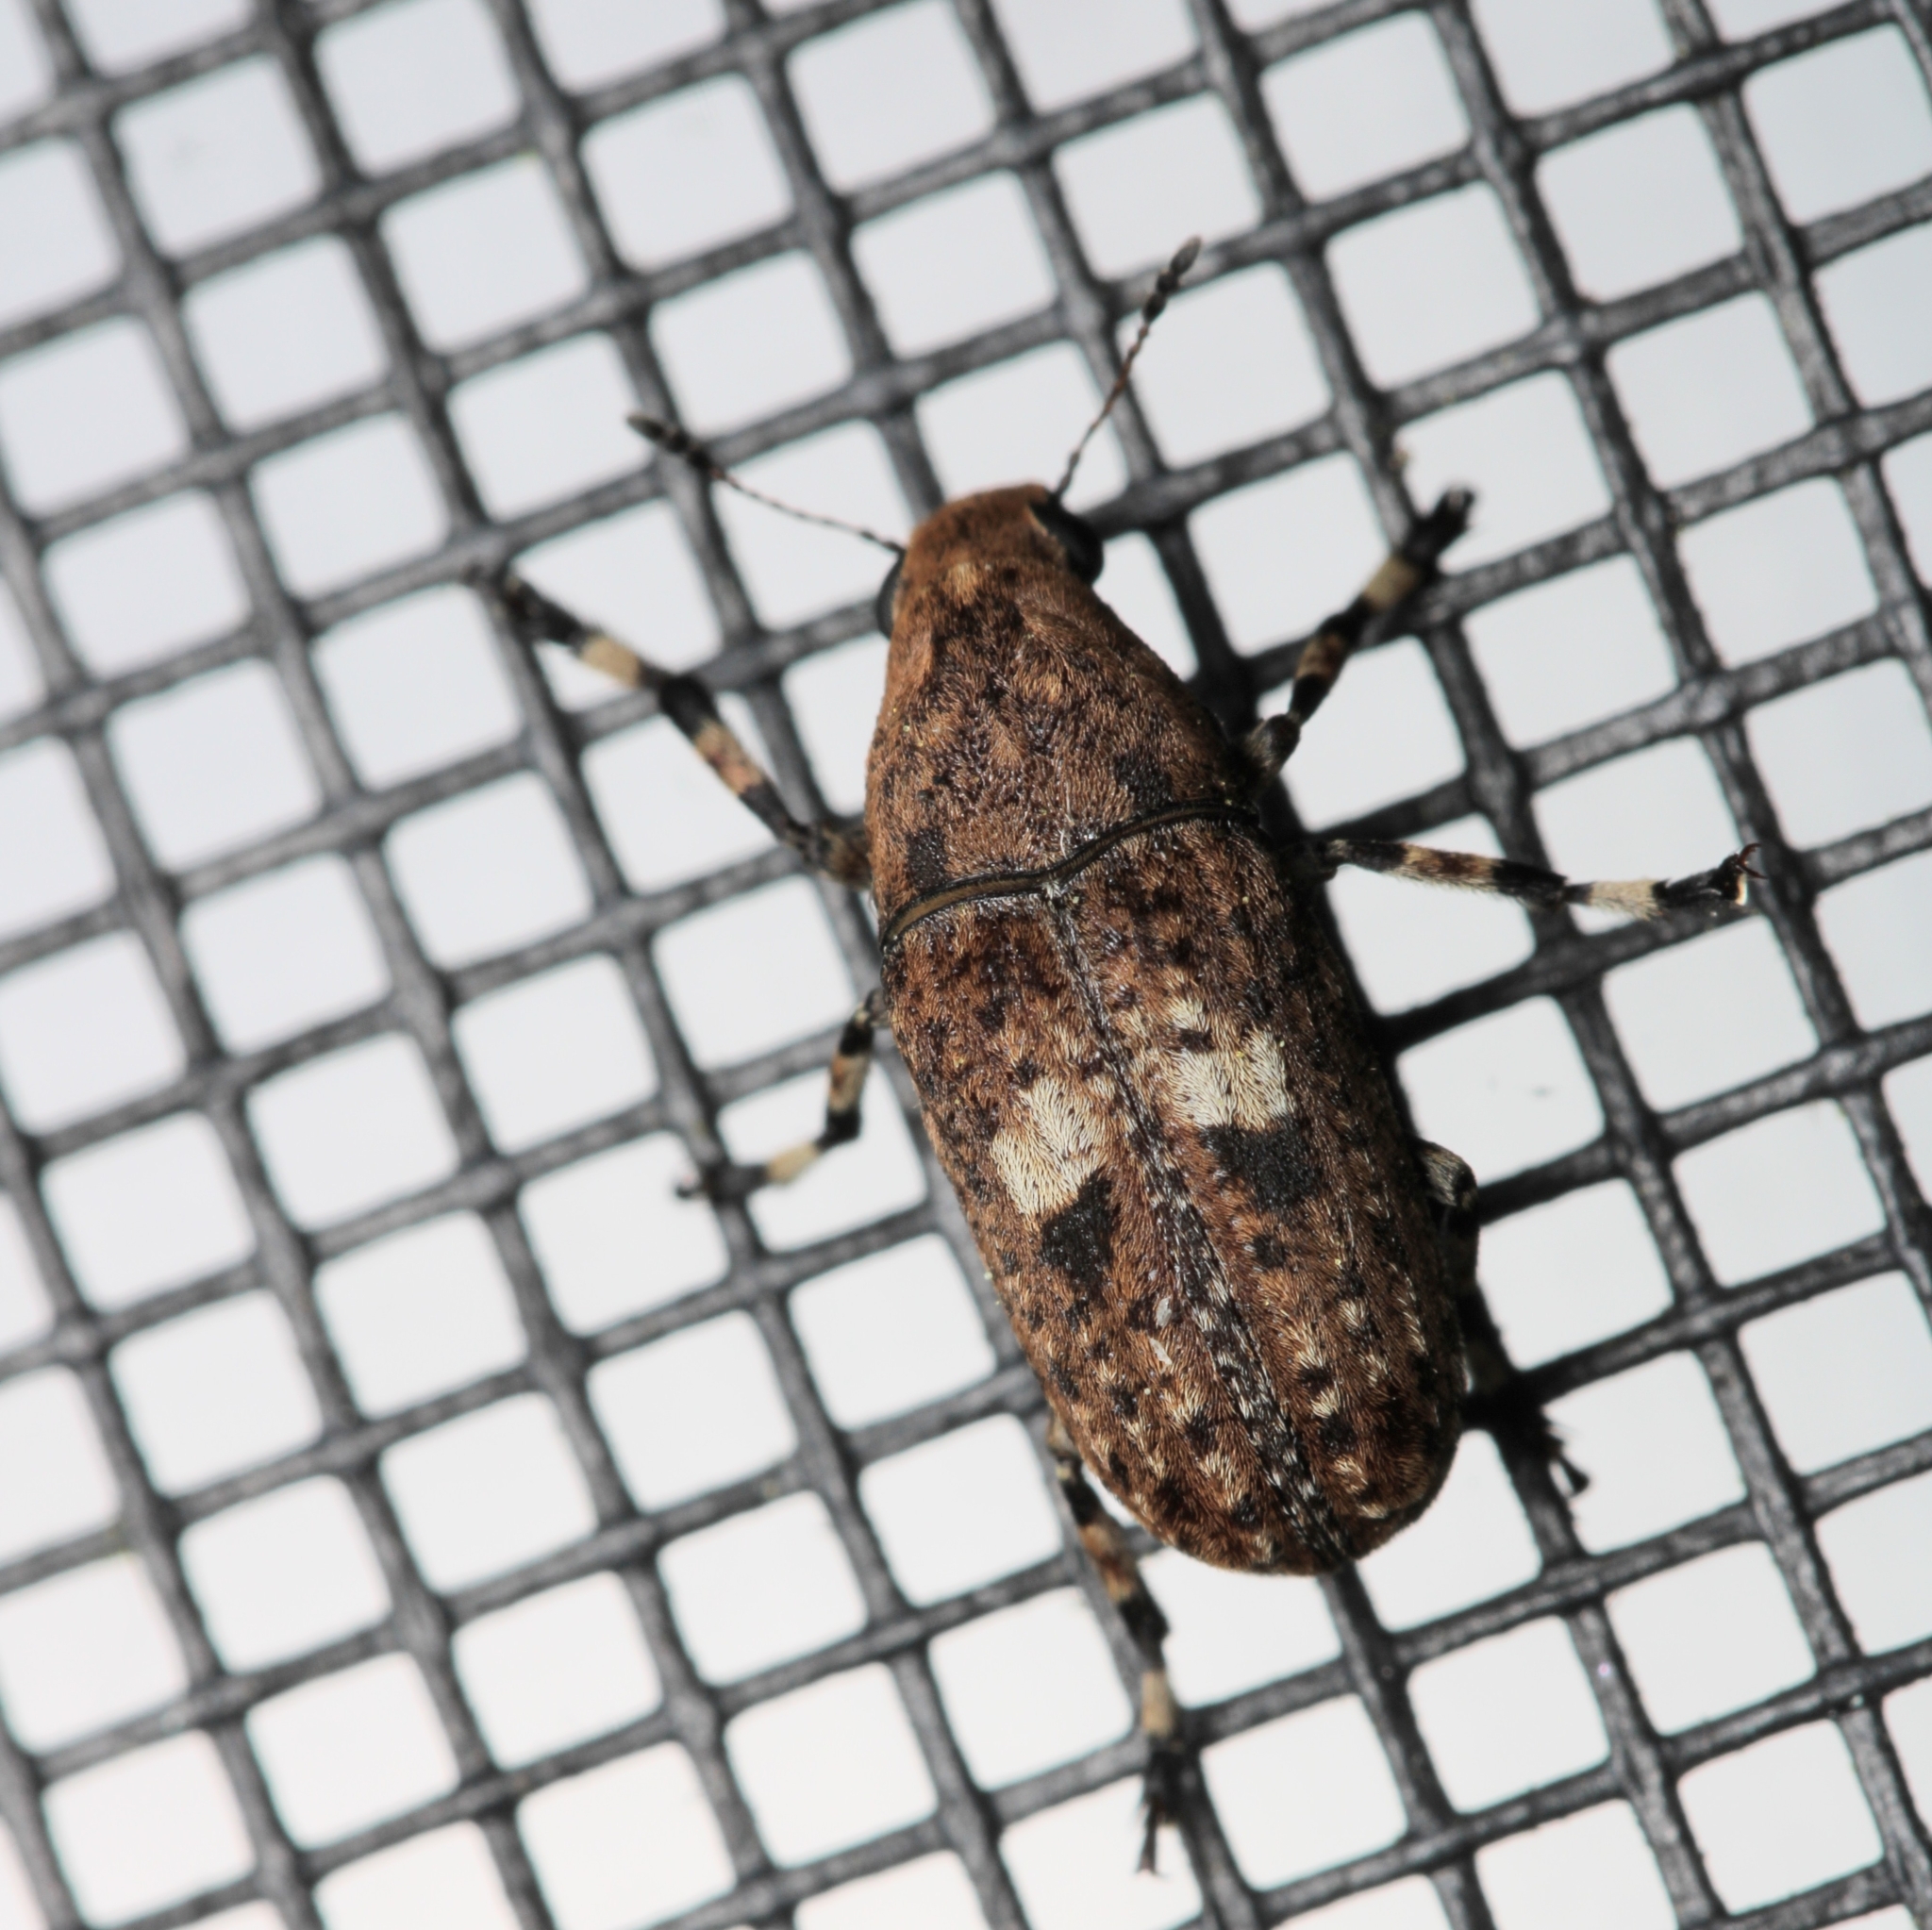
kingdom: Animalia
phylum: Arthropoda
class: Insecta
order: Coleoptera
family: Anthribidae
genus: Euparius
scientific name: Euparius marmoreus
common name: Marbled fungus weevil
